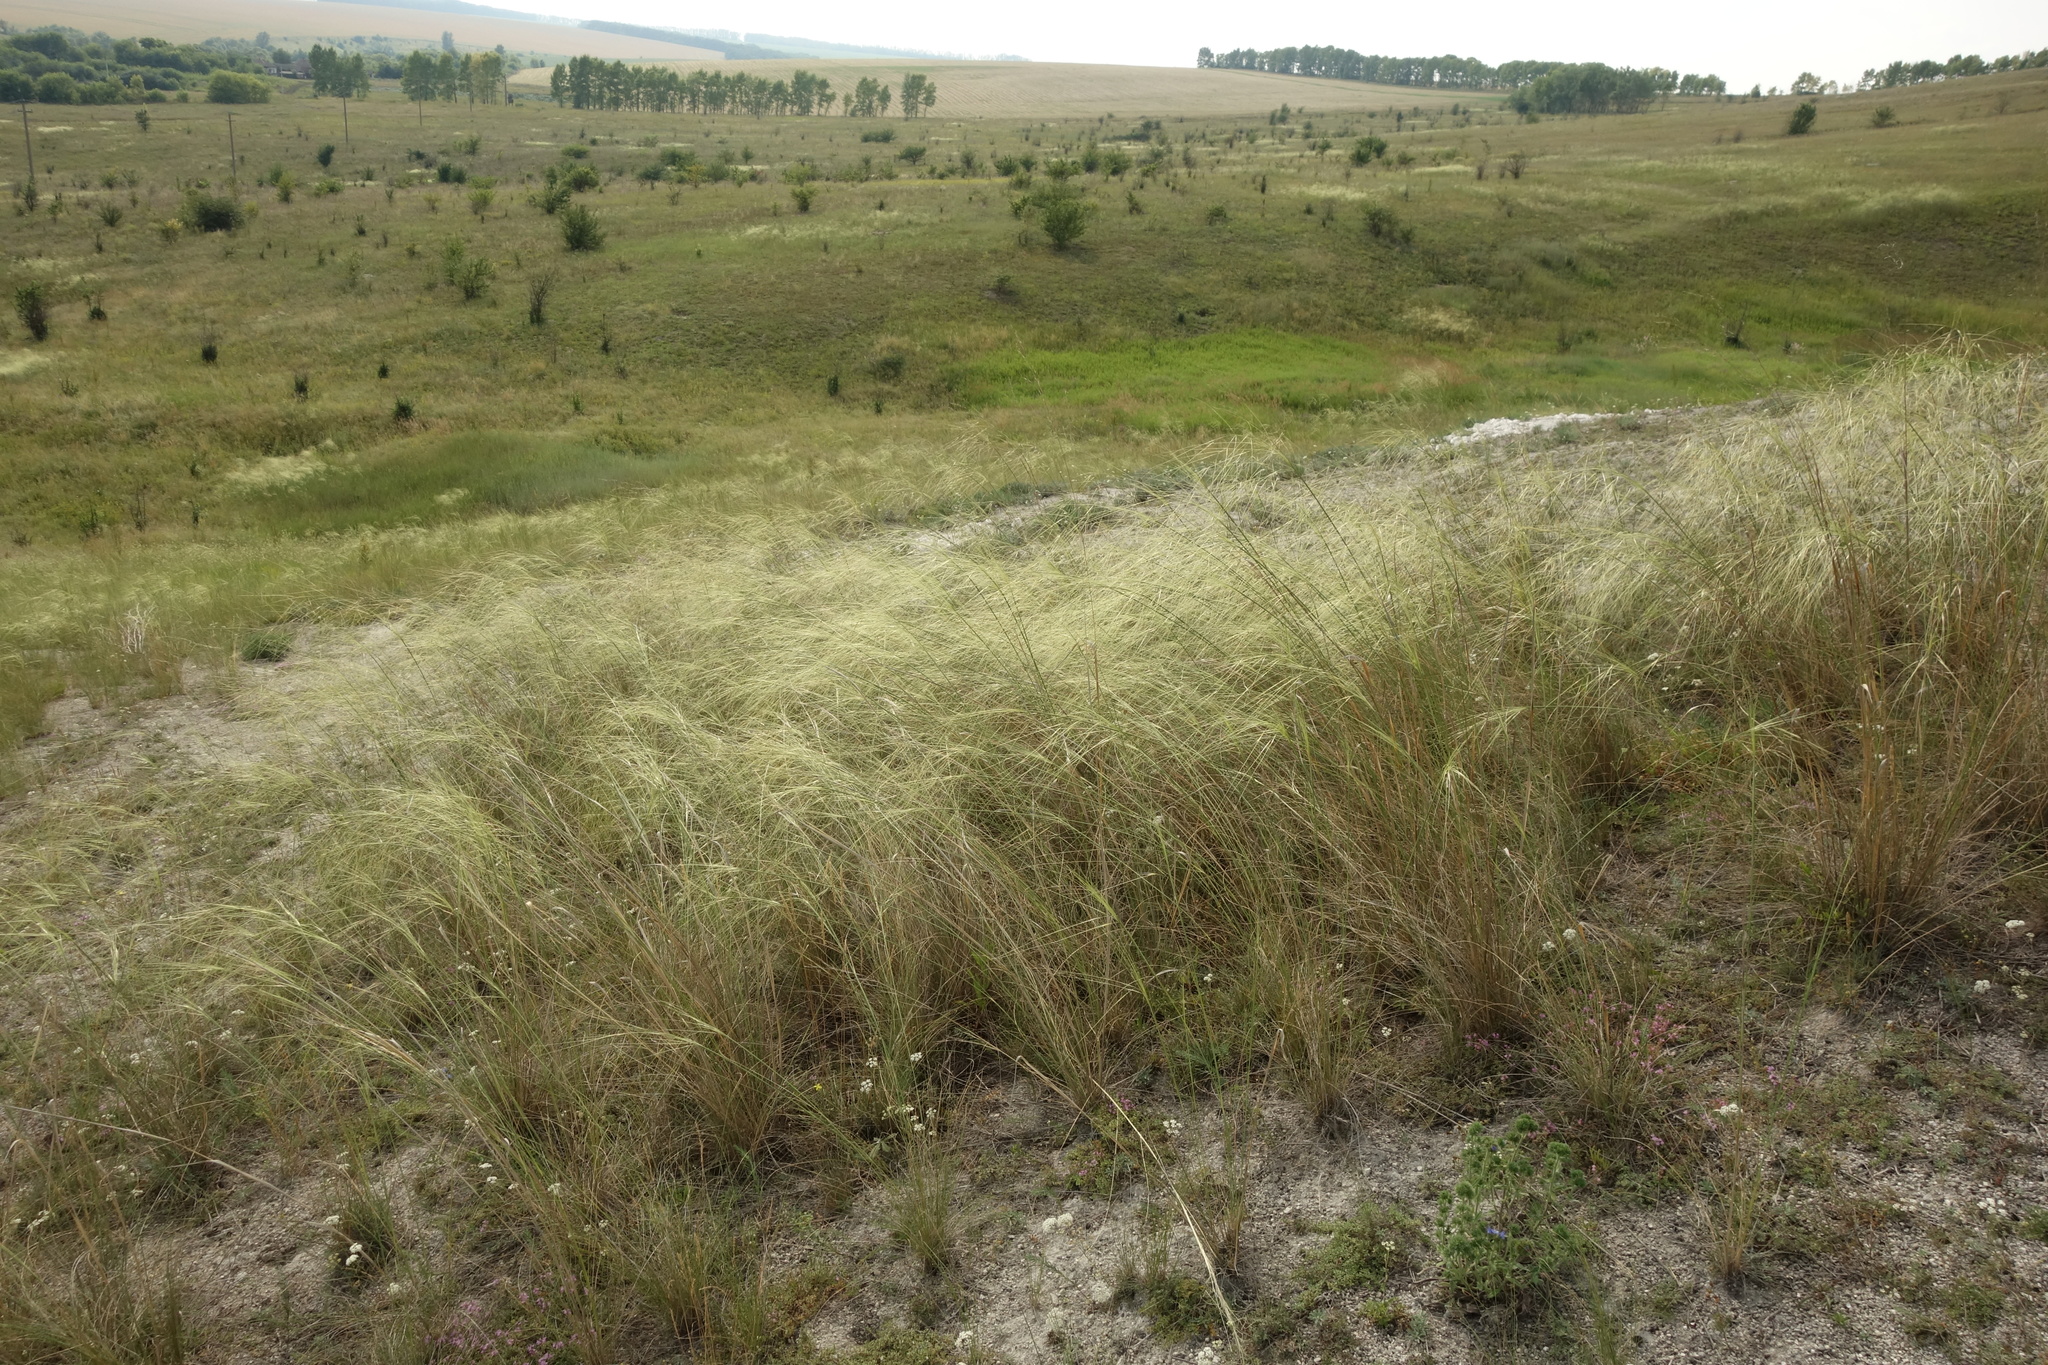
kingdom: Plantae
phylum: Tracheophyta
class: Liliopsida
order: Poales
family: Poaceae
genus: Stipa
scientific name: Stipa capillata
